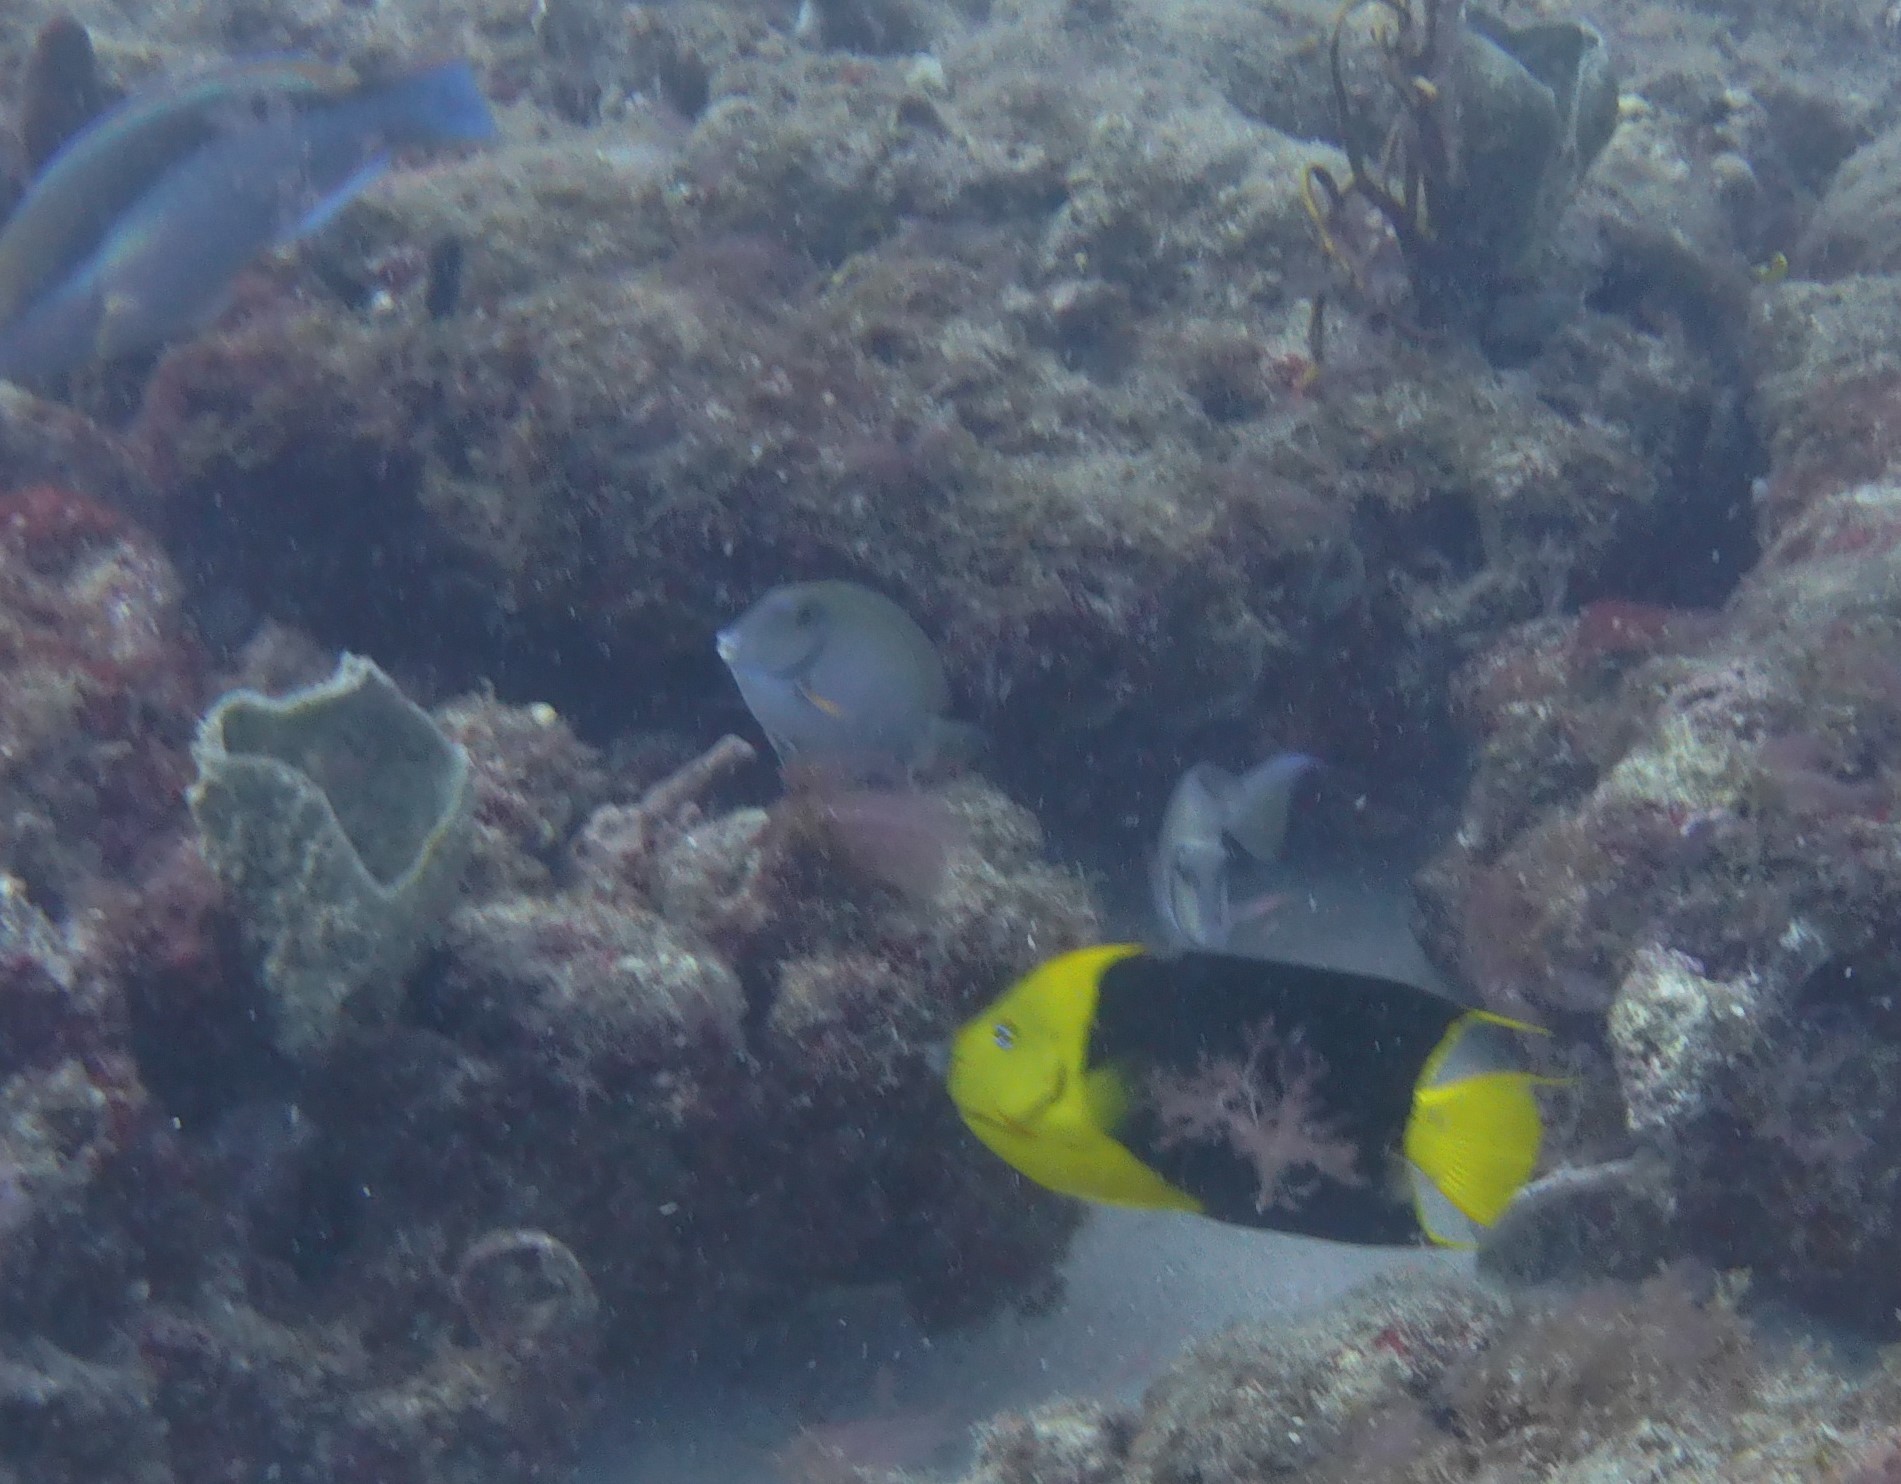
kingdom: Animalia
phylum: Chordata
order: Perciformes
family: Acanthuridae
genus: Acanthurus
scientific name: Acanthurus bahianus
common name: Ocean surgeon
